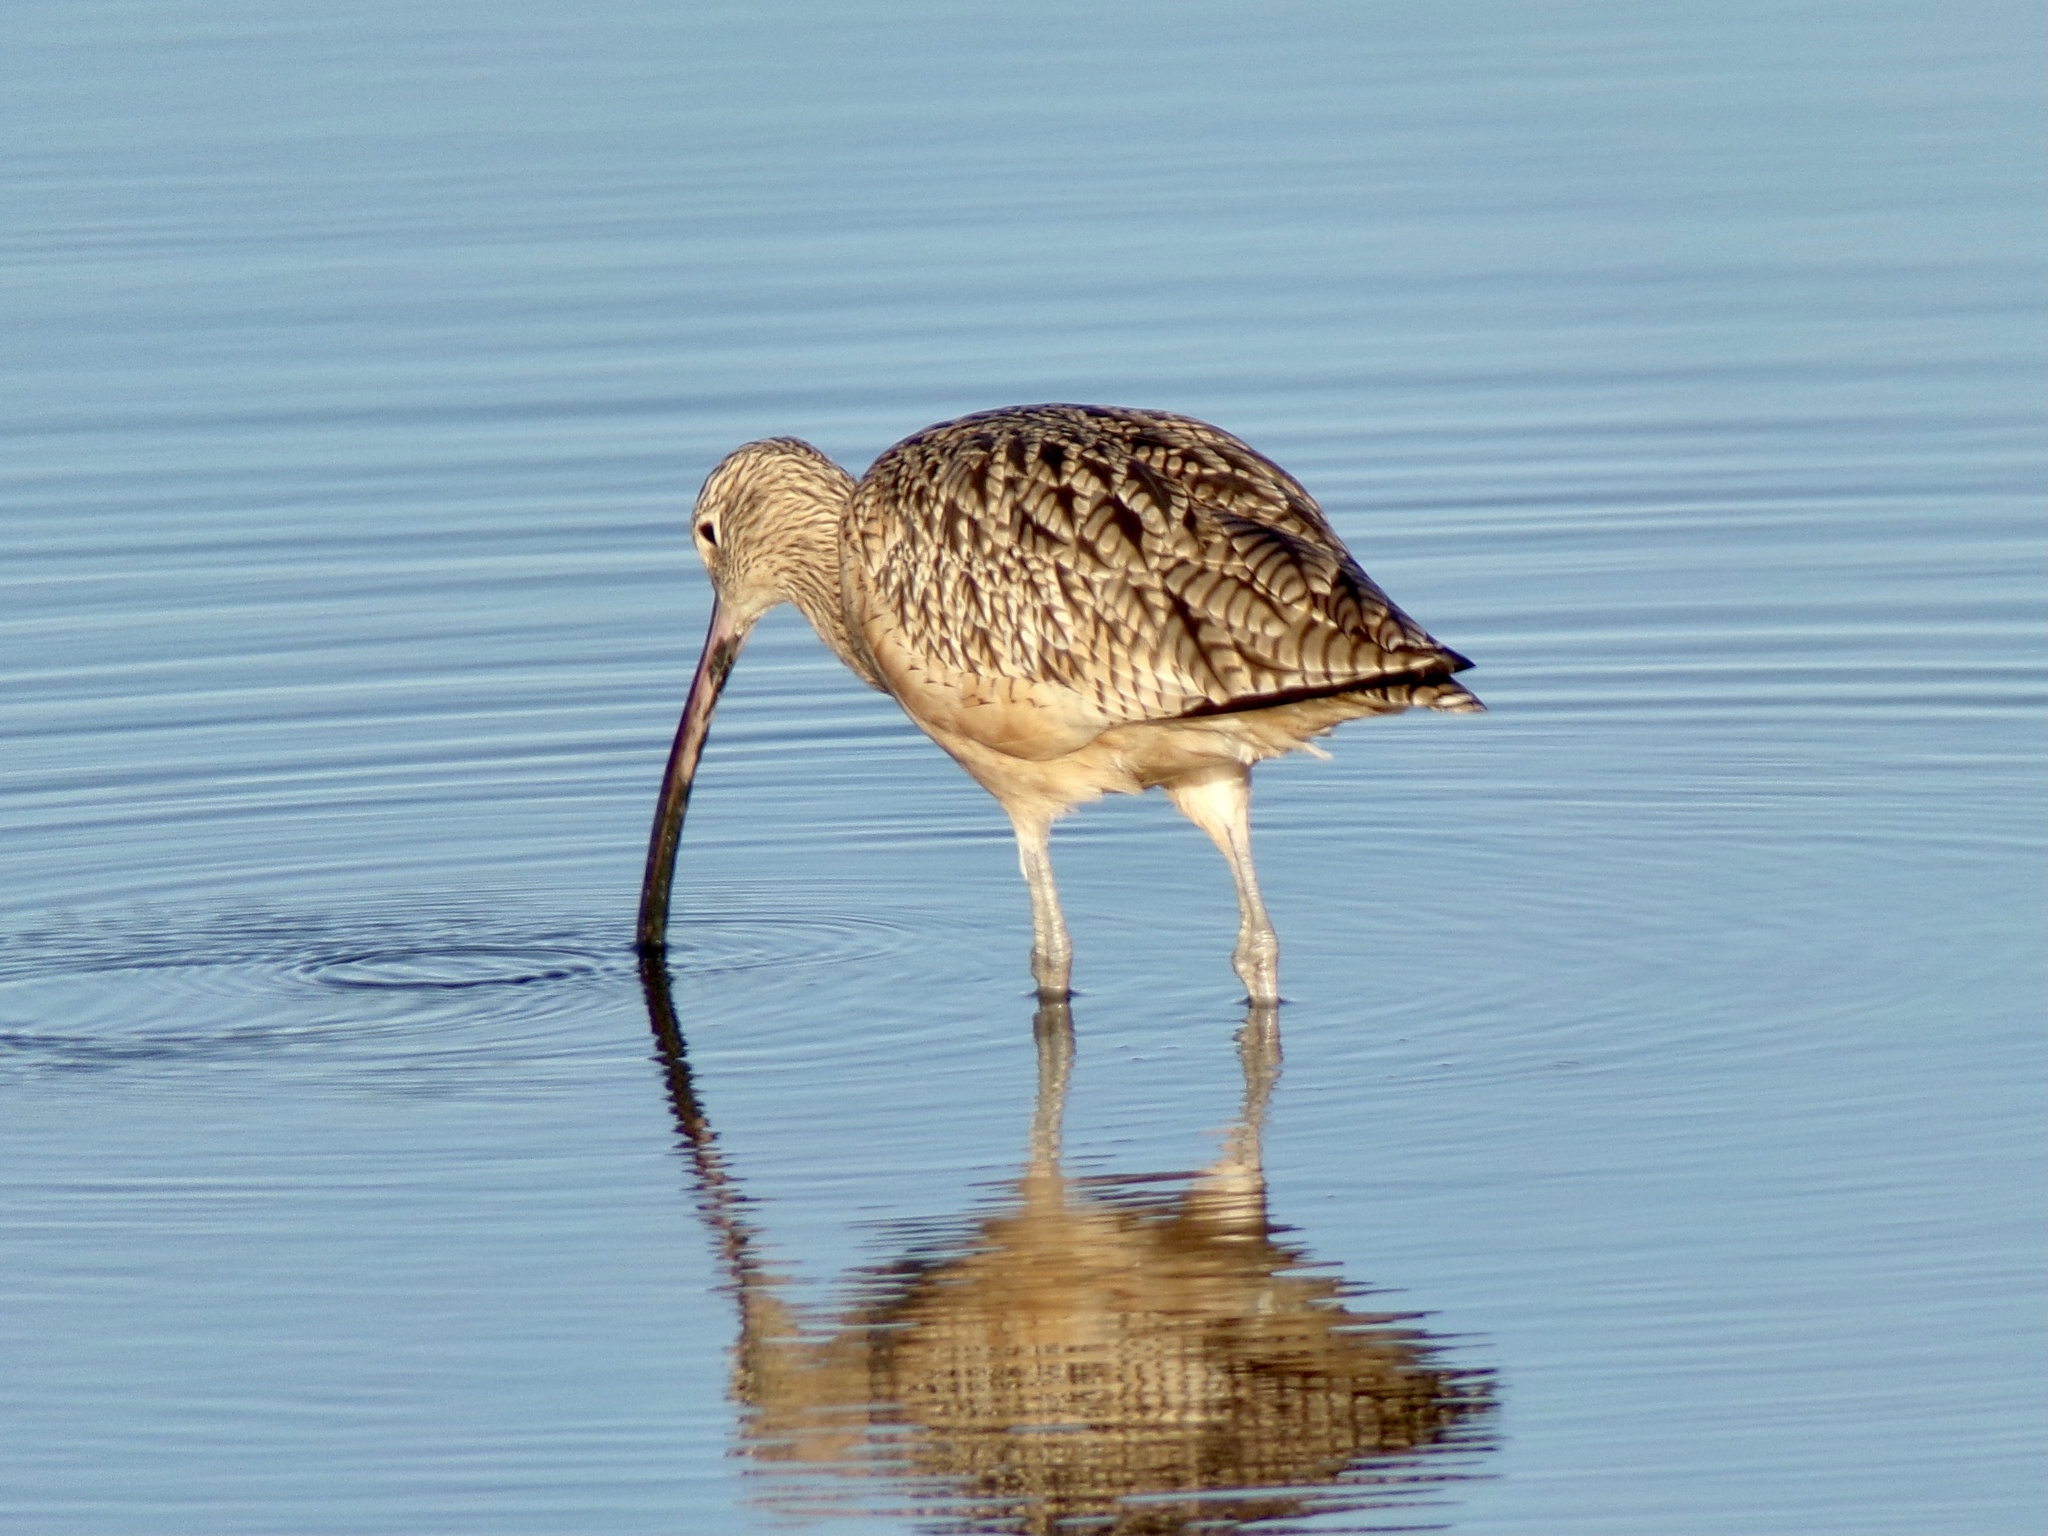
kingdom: Animalia
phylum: Chordata
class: Aves
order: Charadriiformes
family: Scolopacidae
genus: Numenius
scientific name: Numenius americanus
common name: Long-billed curlew
